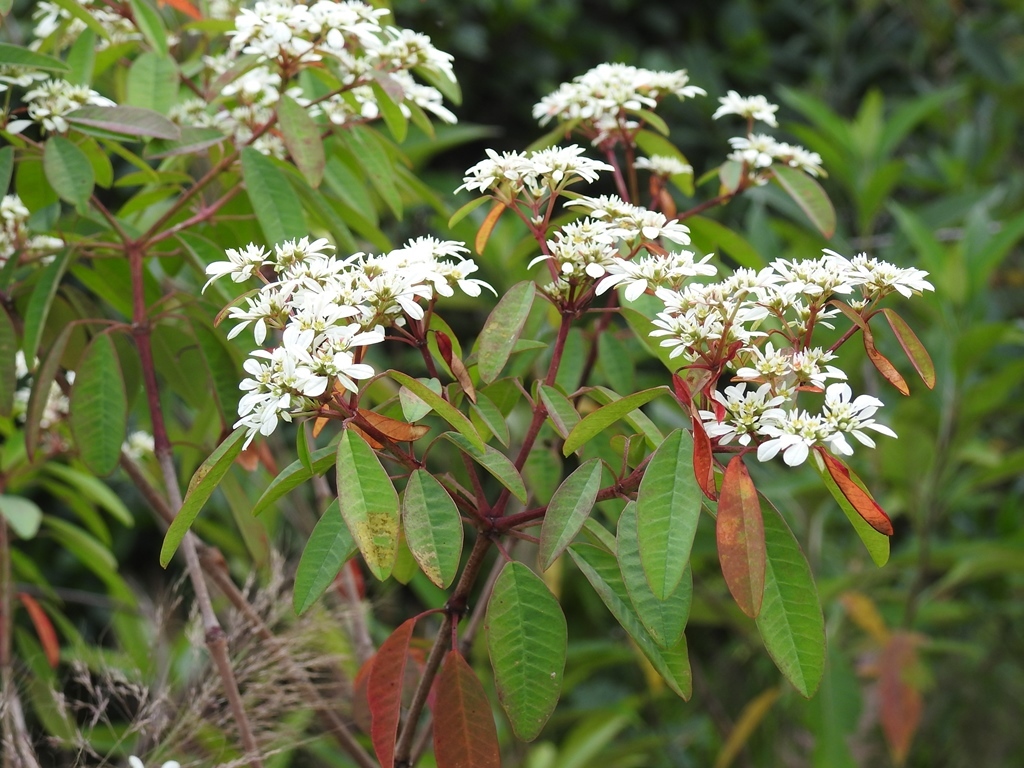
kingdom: Plantae
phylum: Tracheophyta
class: Magnoliopsida
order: Malpighiales
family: Euphorbiaceae
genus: Euphorbia
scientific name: Euphorbia leucocephala
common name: Pascuita
